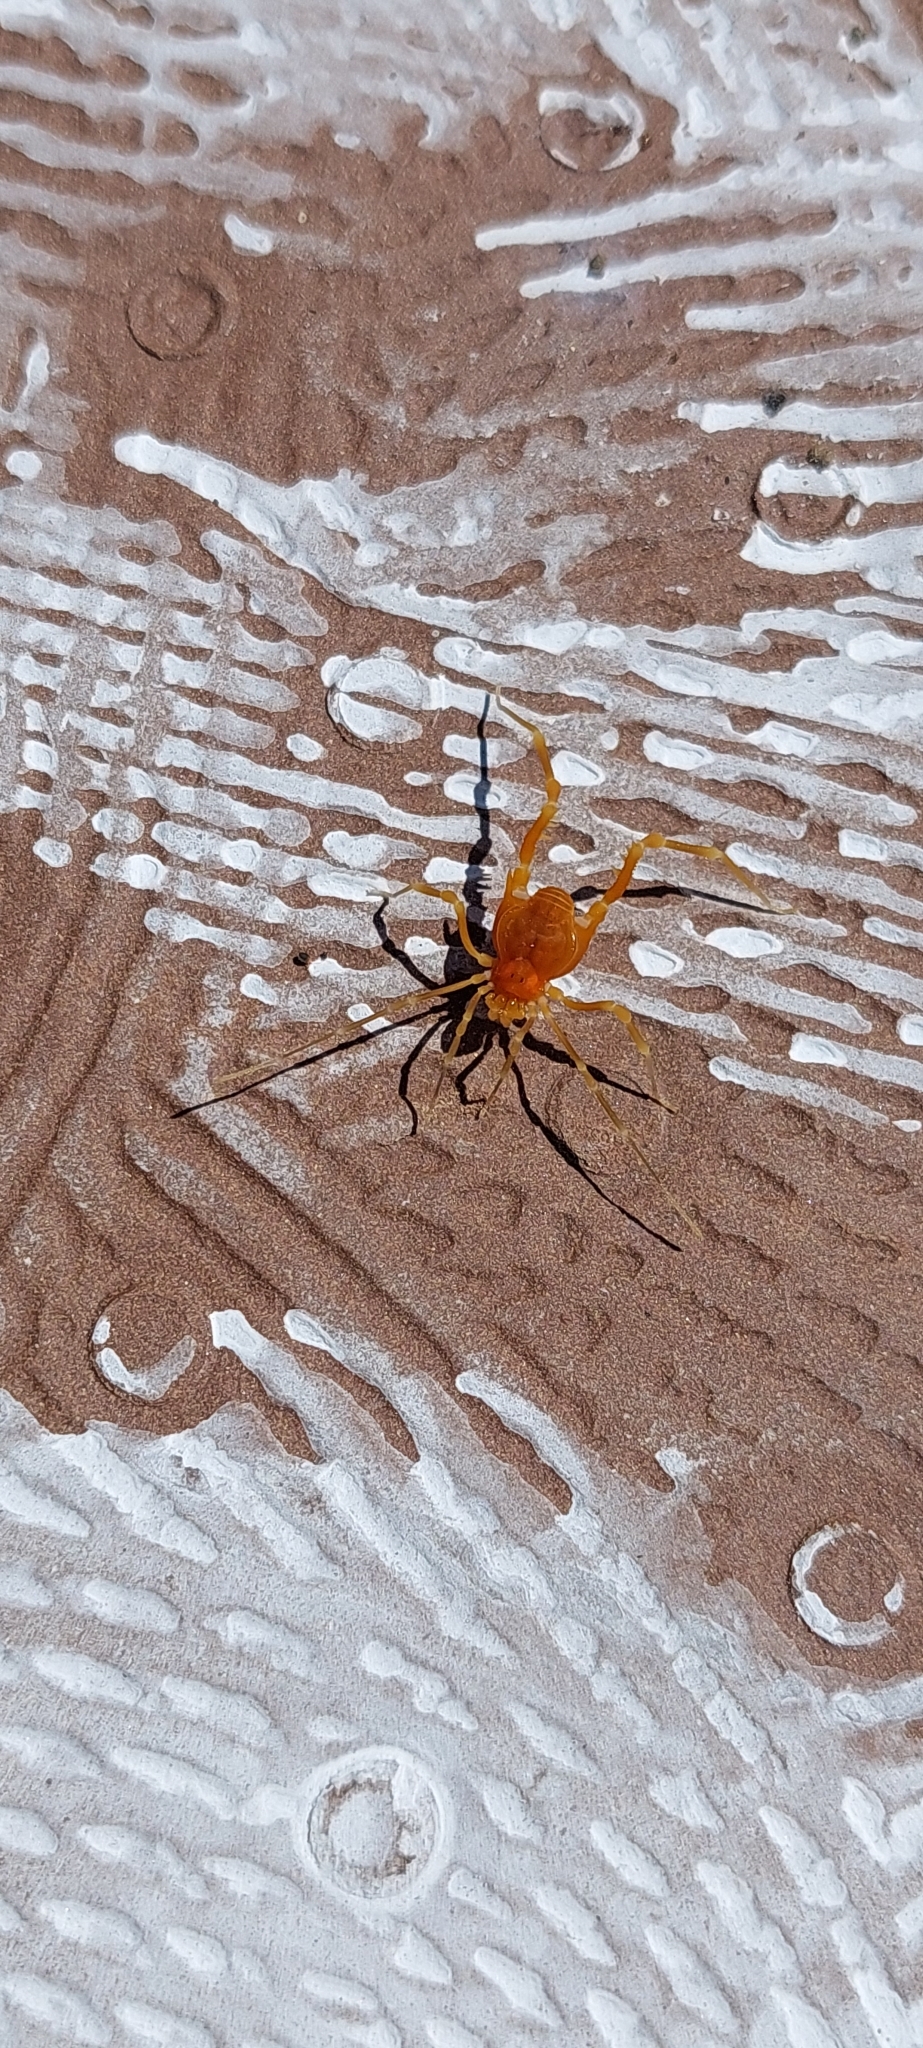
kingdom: Animalia
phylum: Arthropoda
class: Arachnida
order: Opiliones
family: Gonyleptidae
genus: Neopucroliella
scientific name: Neopucroliella mesembrina
